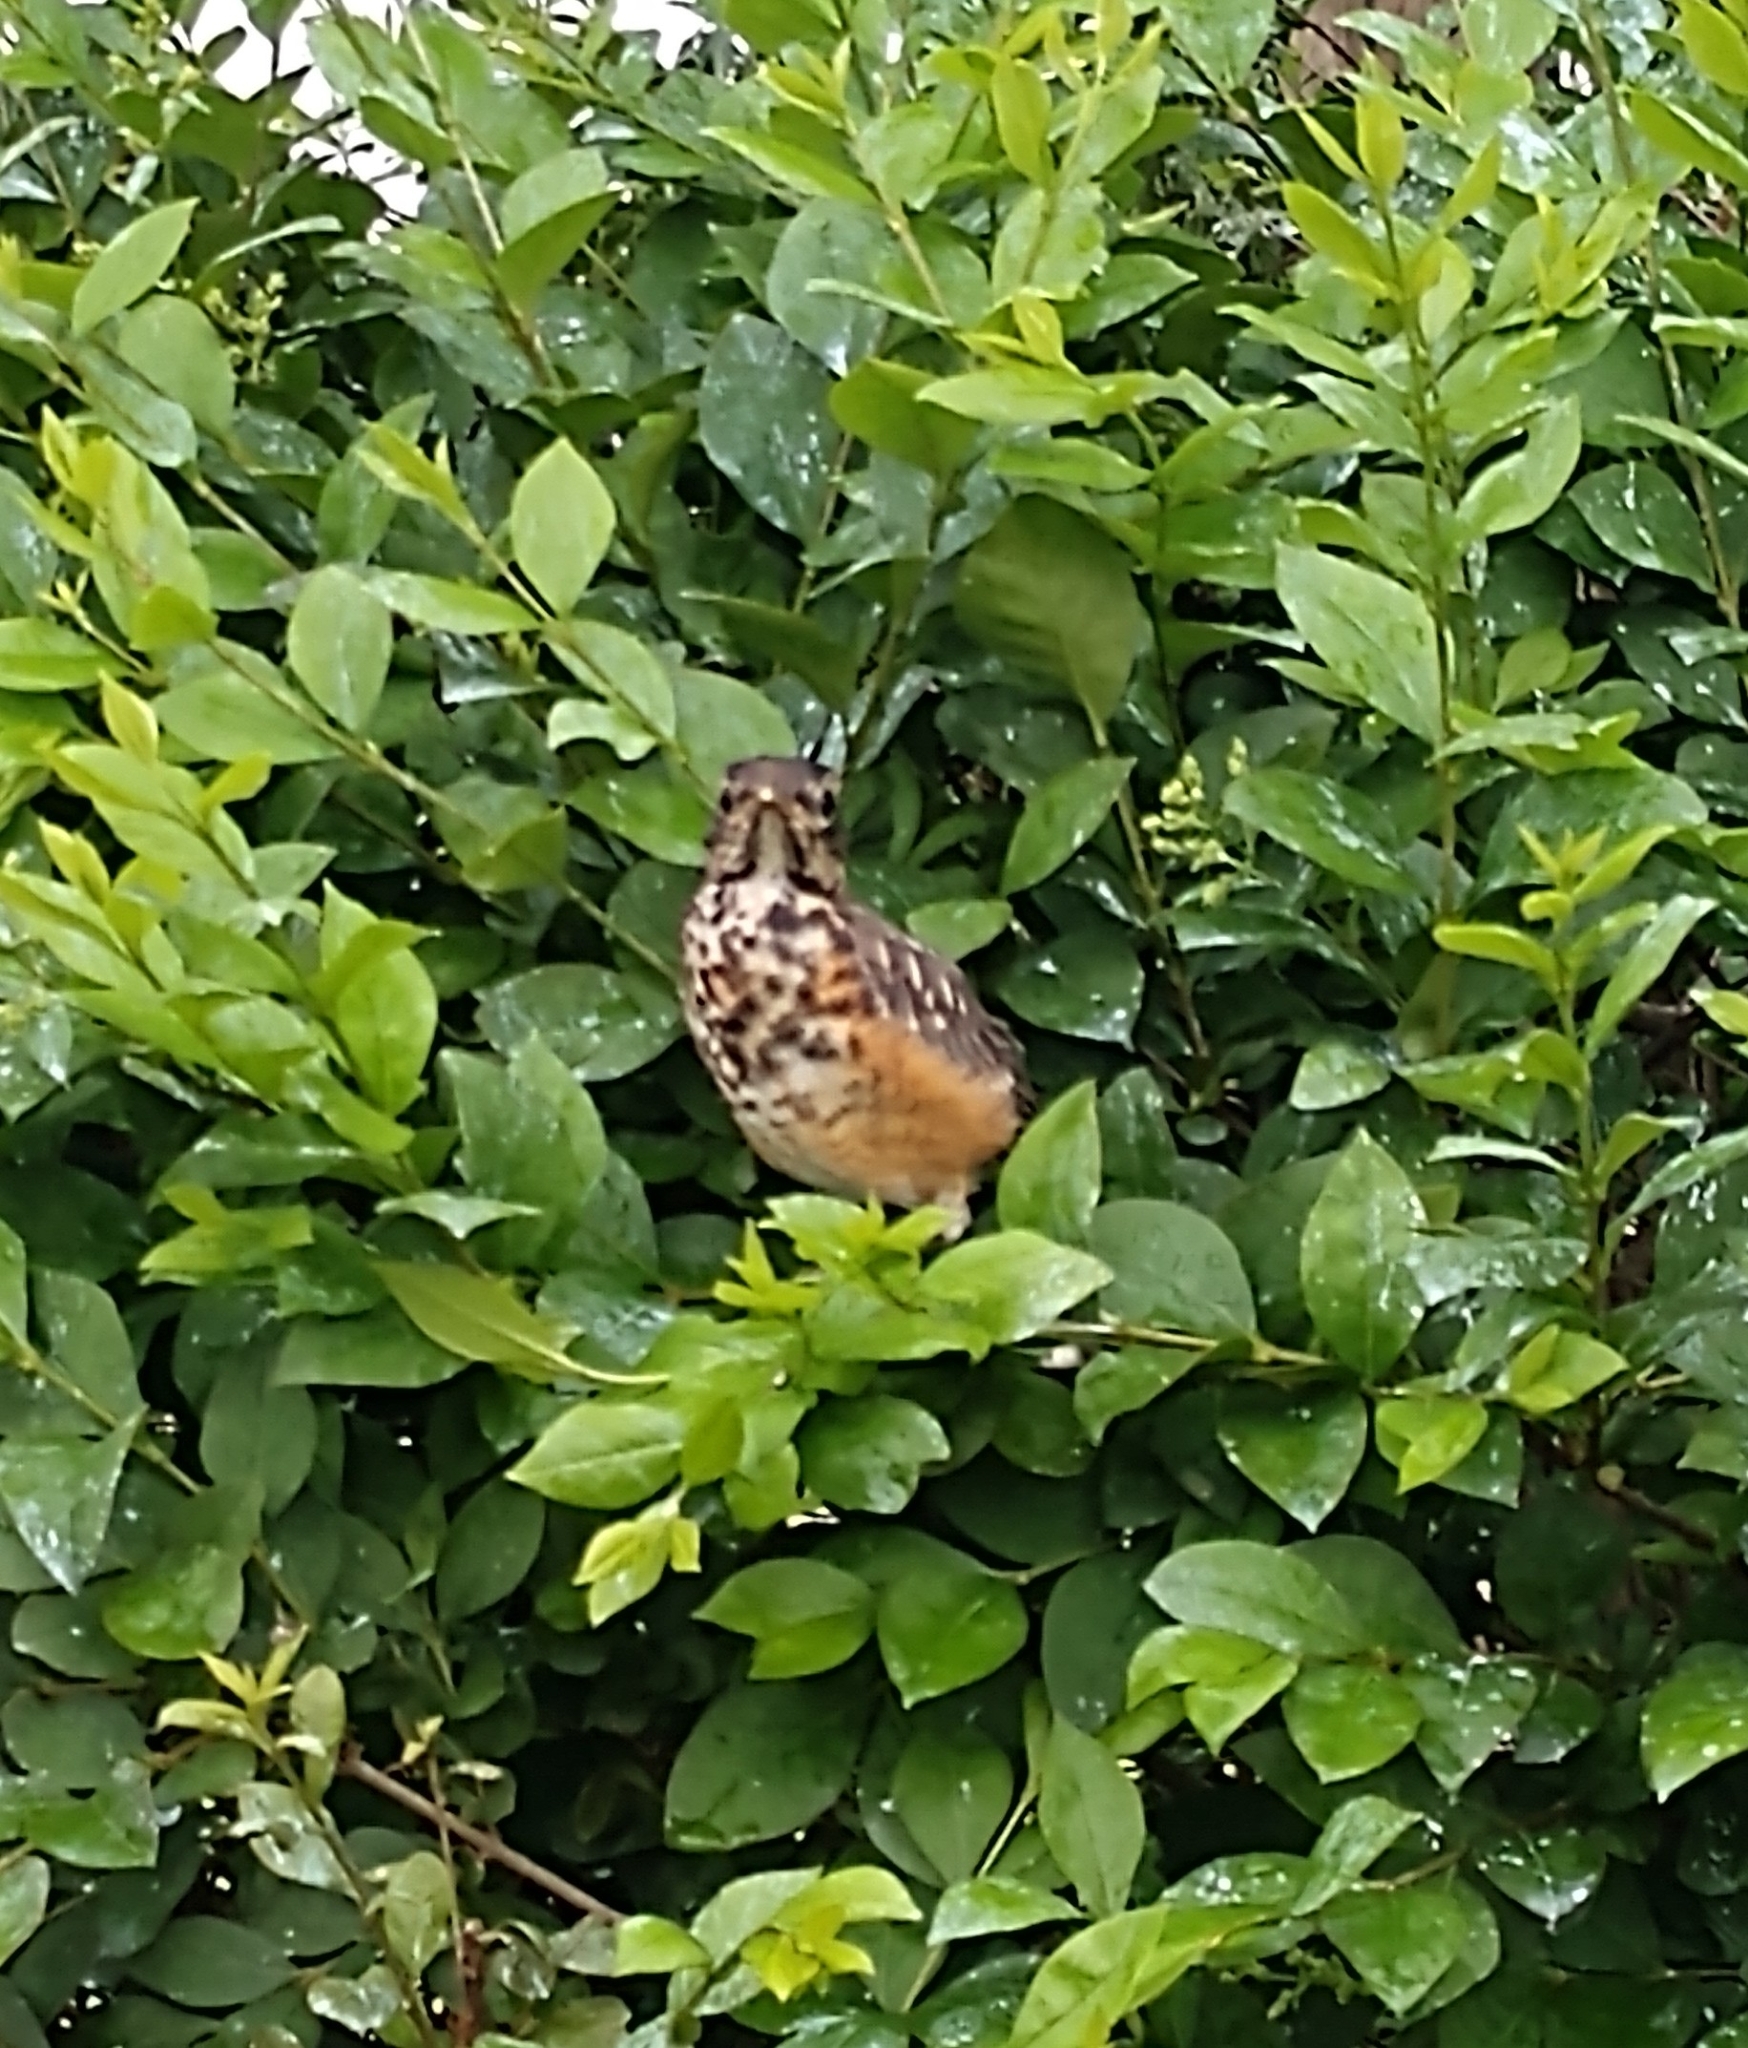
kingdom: Animalia
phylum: Chordata
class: Aves
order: Passeriformes
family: Turdidae
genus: Turdus
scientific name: Turdus migratorius
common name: American robin
